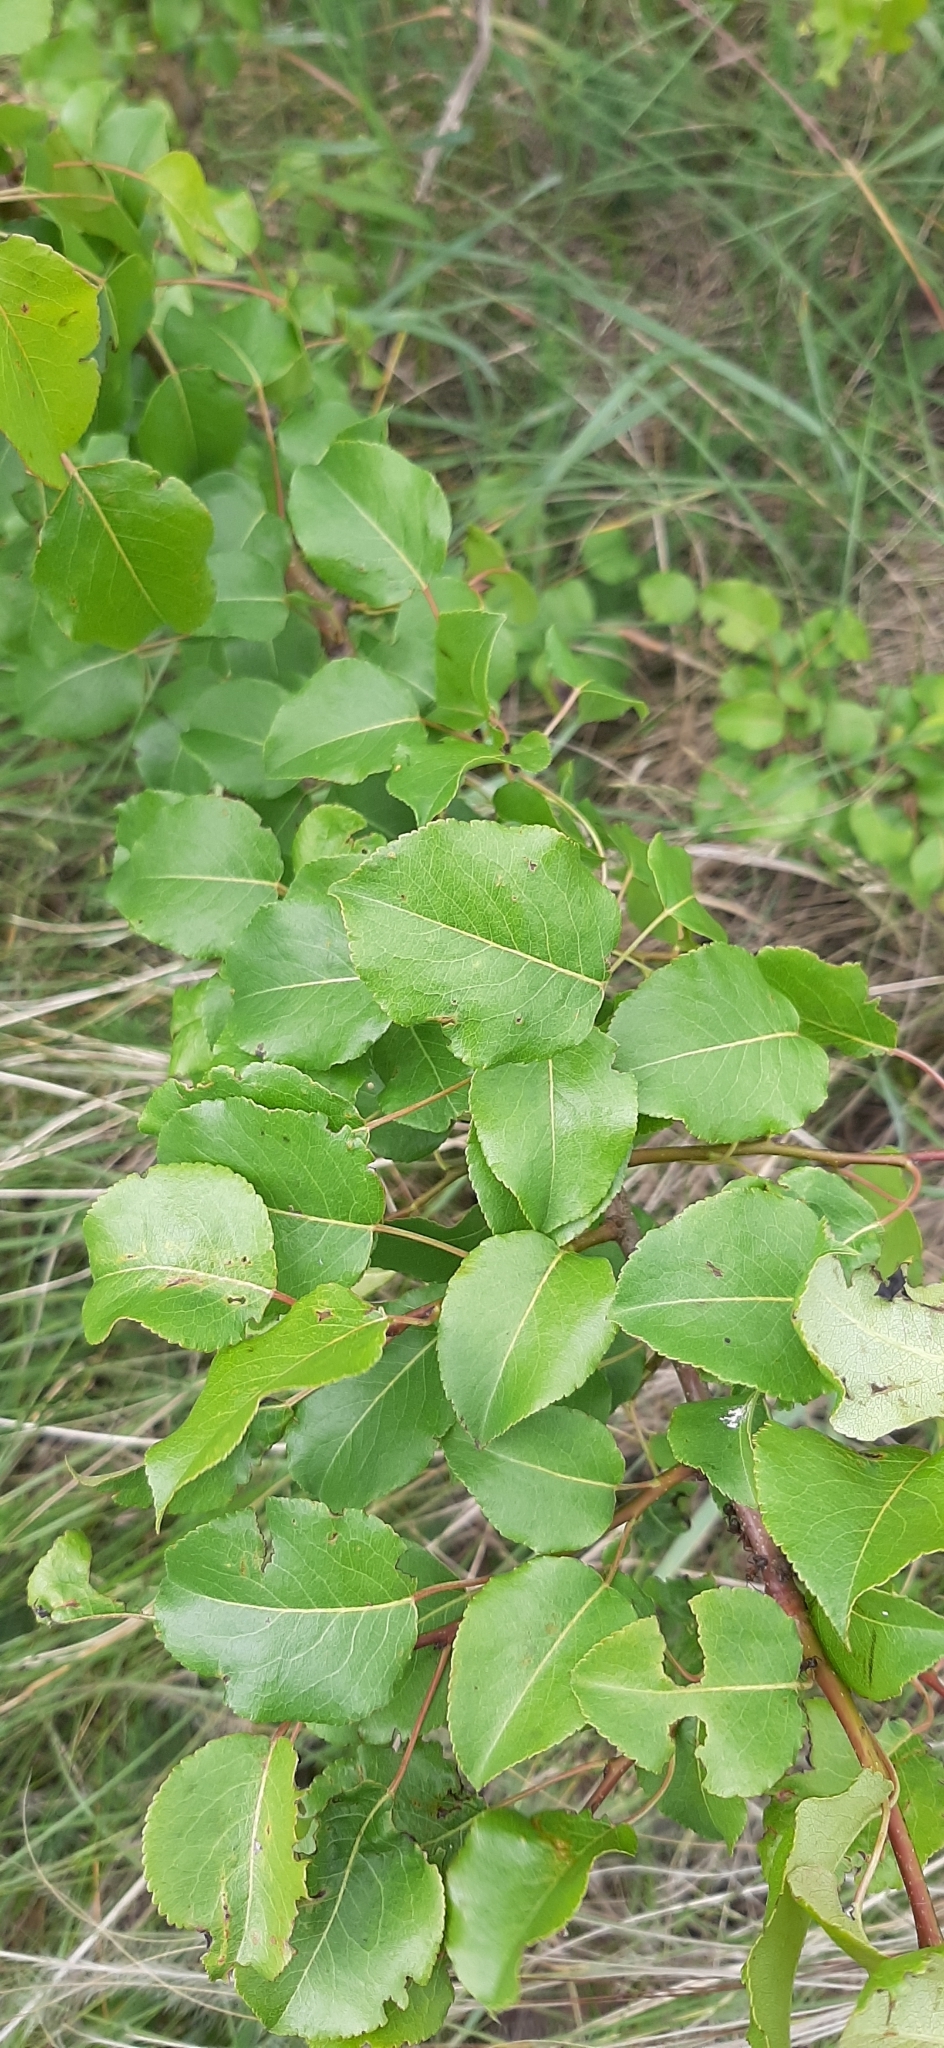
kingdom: Plantae
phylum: Tracheophyta
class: Magnoliopsida
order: Rosales
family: Rosaceae
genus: Pyrus
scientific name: Pyrus communis
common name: Pear
